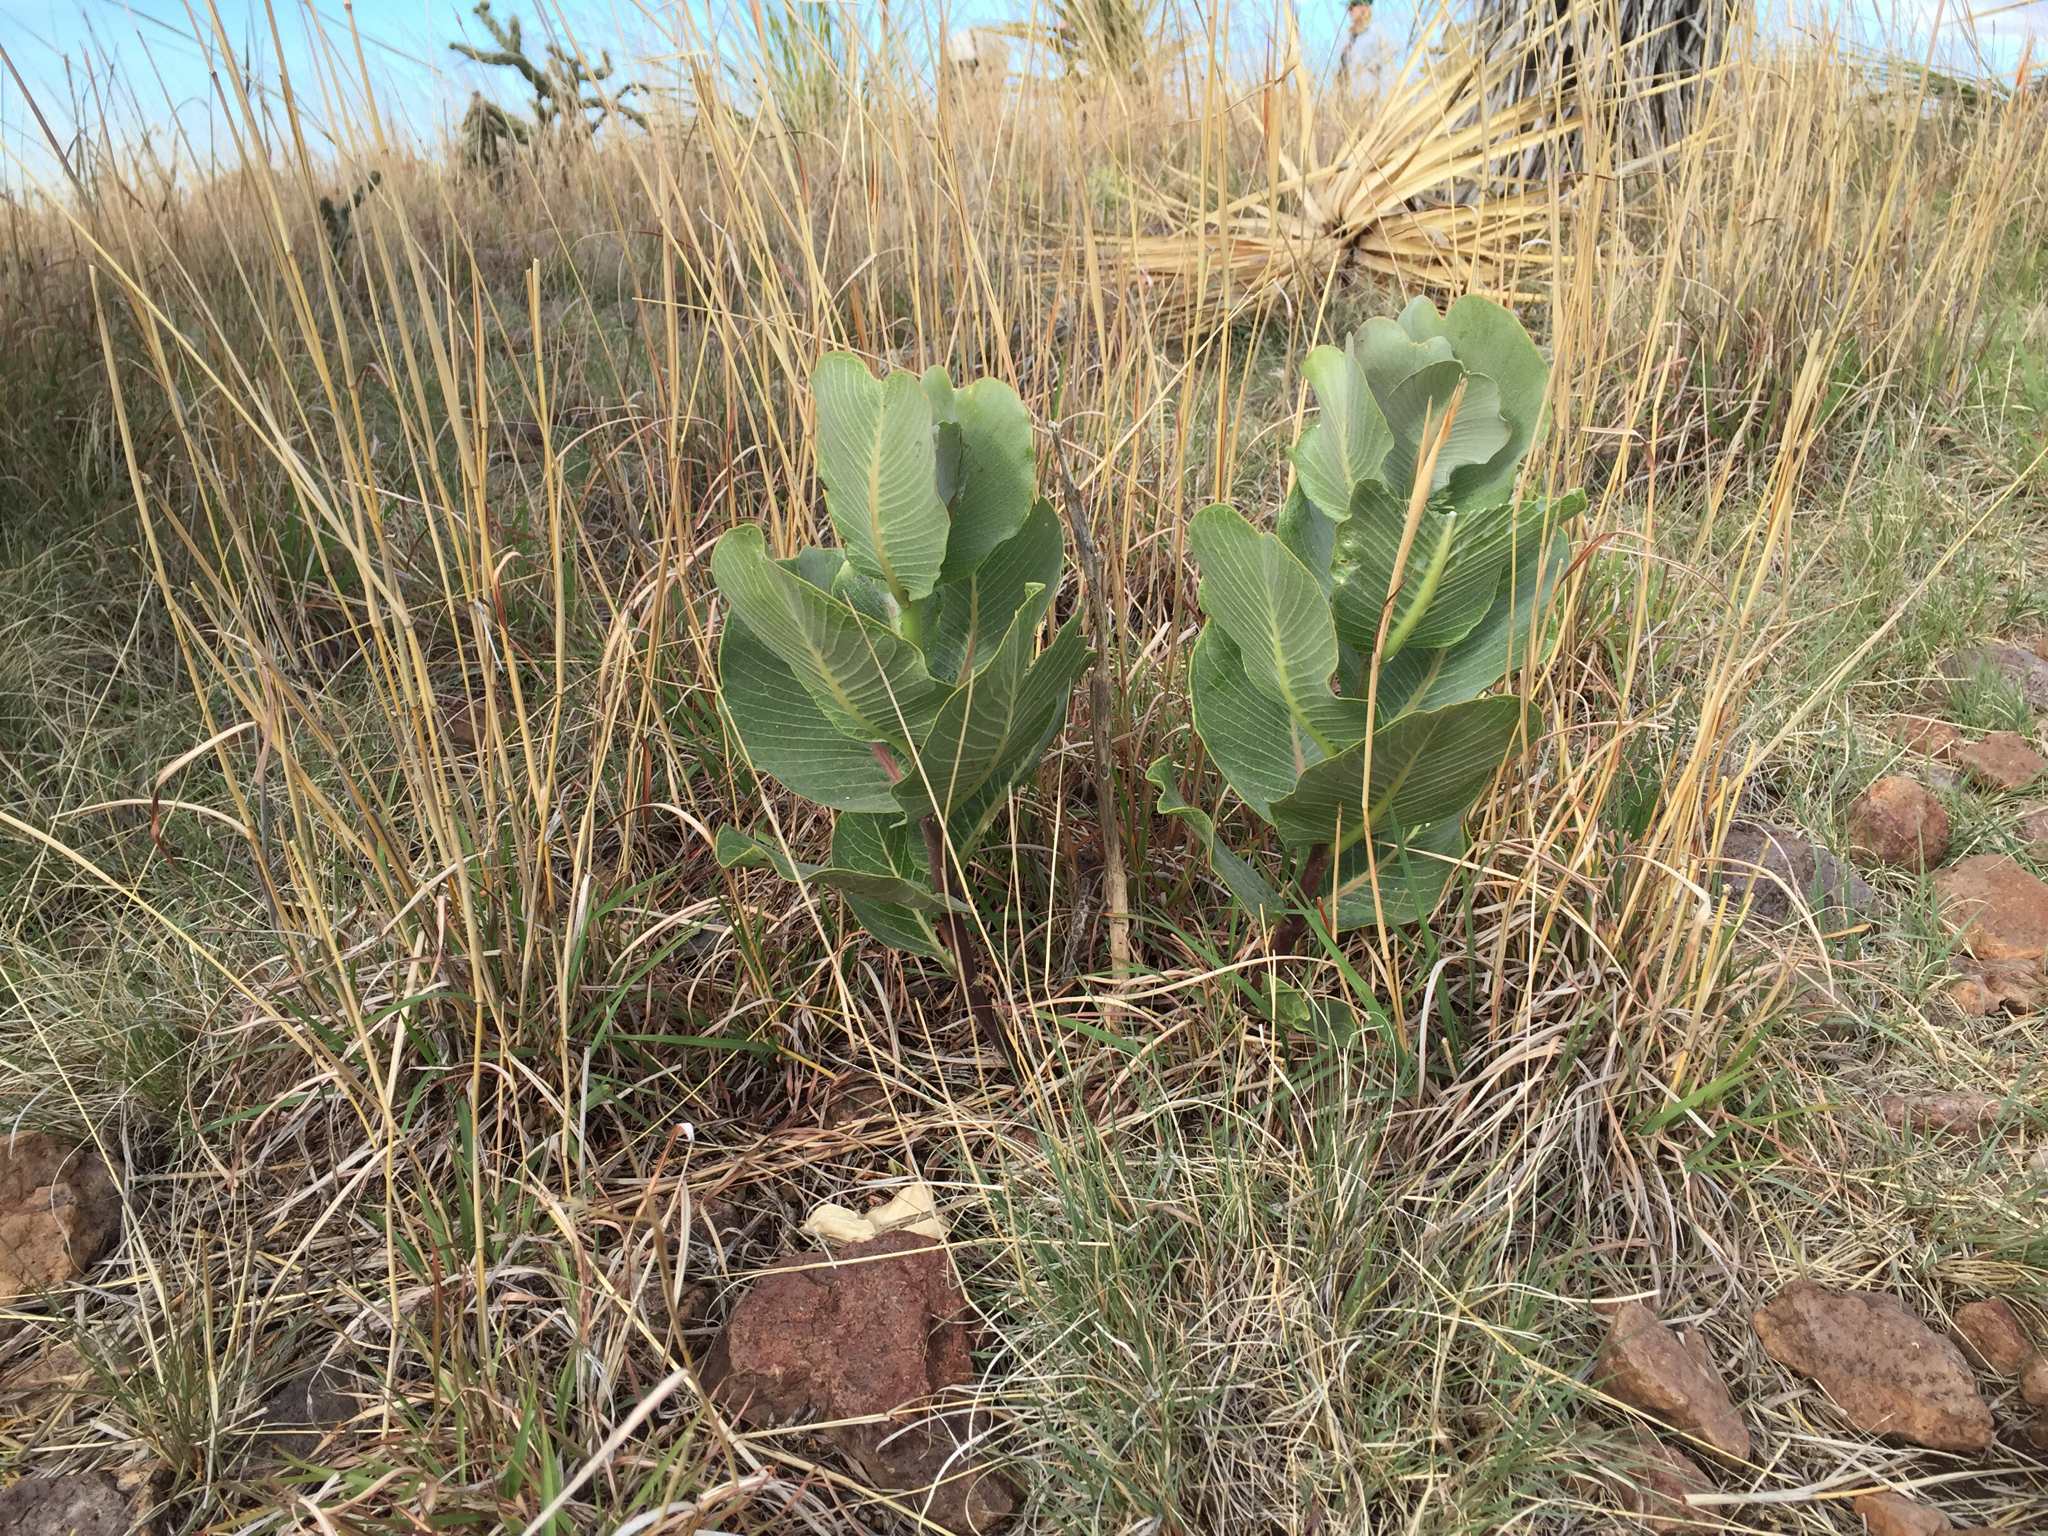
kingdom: Plantae
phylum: Tracheophyta
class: Magnoliopsida
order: Gentianales
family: Apocynaceae
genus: Asclepias
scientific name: Asclepias latifolia
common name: Broadleaf milkweed
